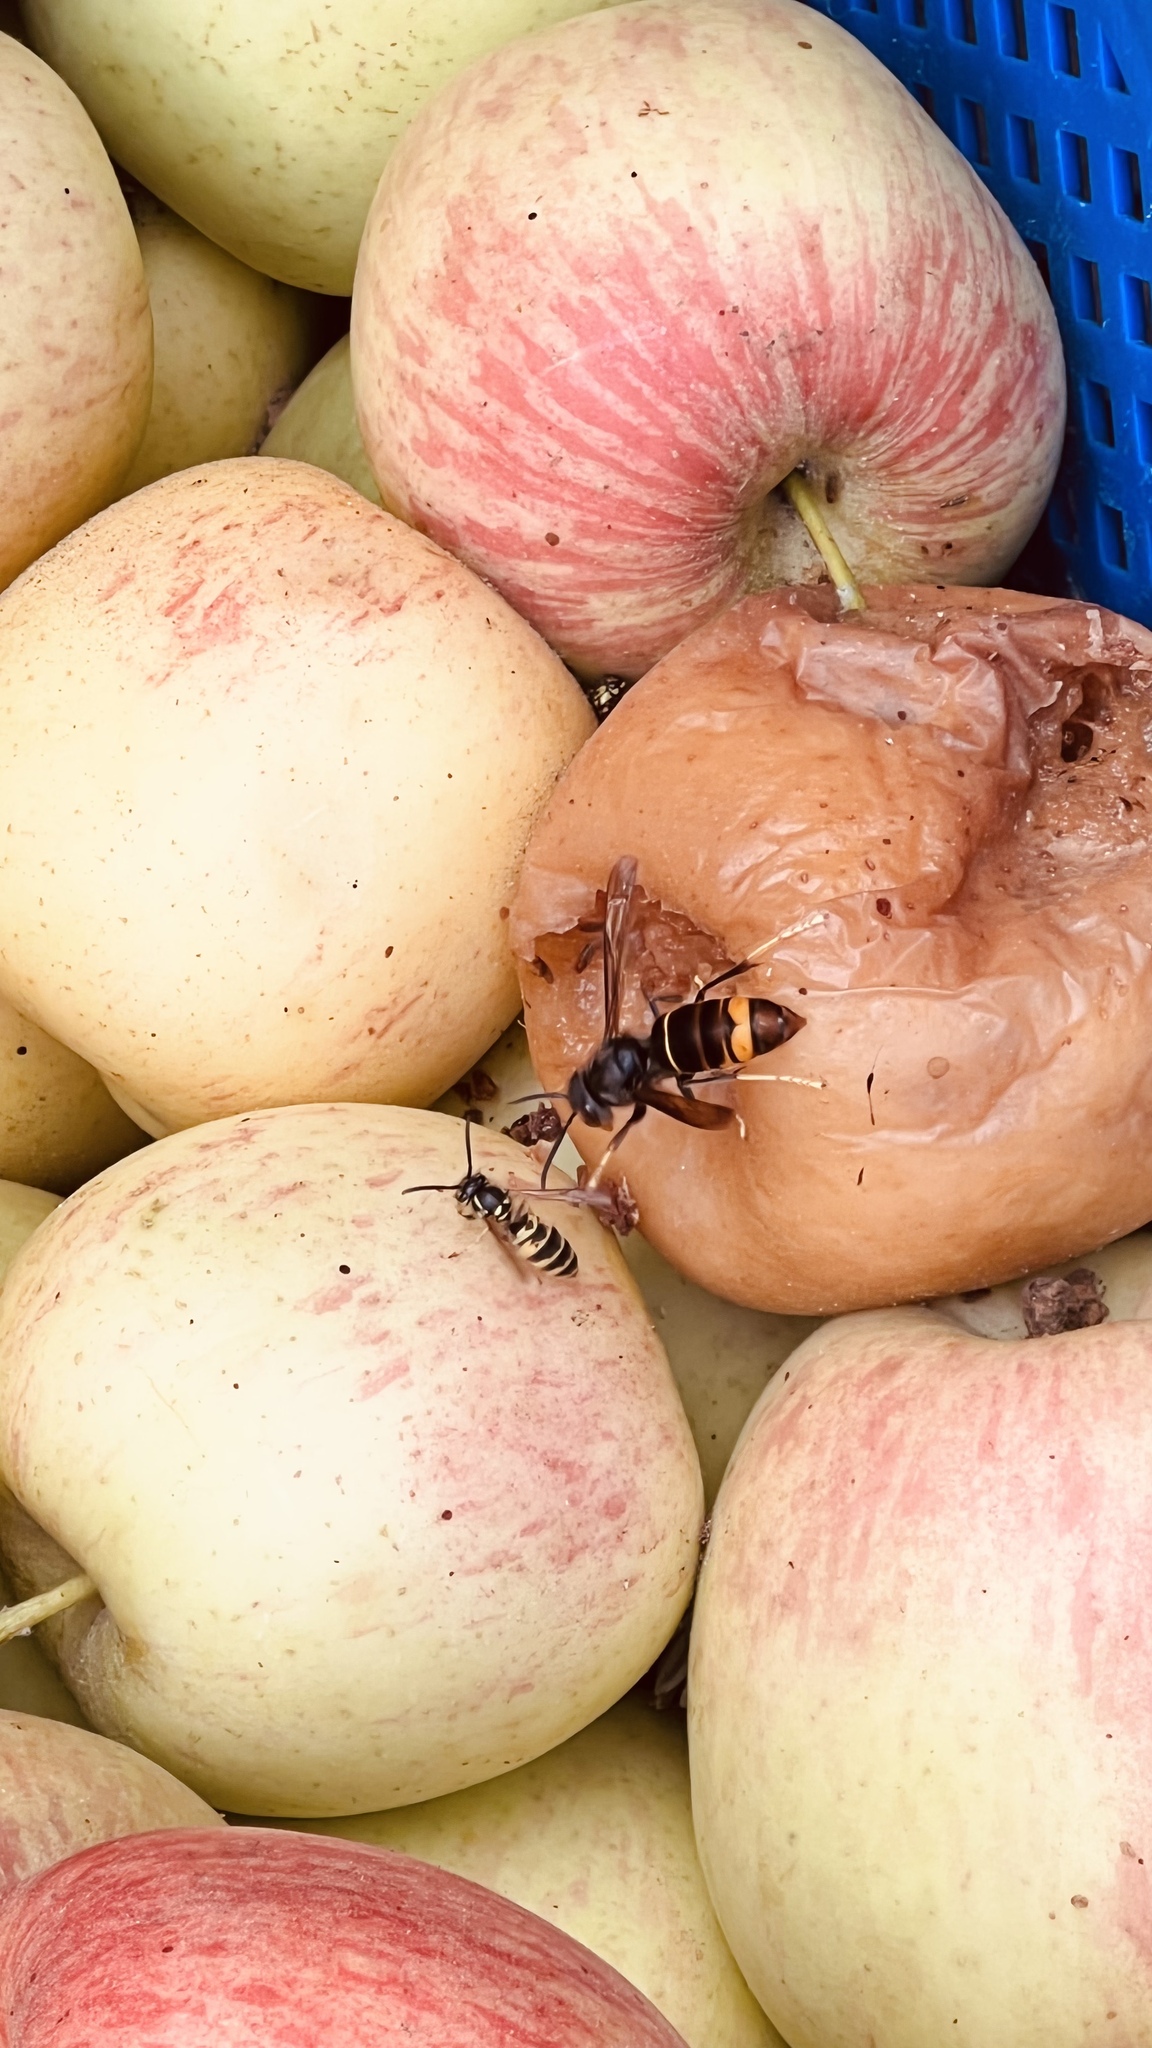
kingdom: Animalia
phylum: Arthropoda
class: Insecta
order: Hymenoptera
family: Vespidae
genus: Vespa
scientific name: Vespa velutina
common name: Asian hornet
